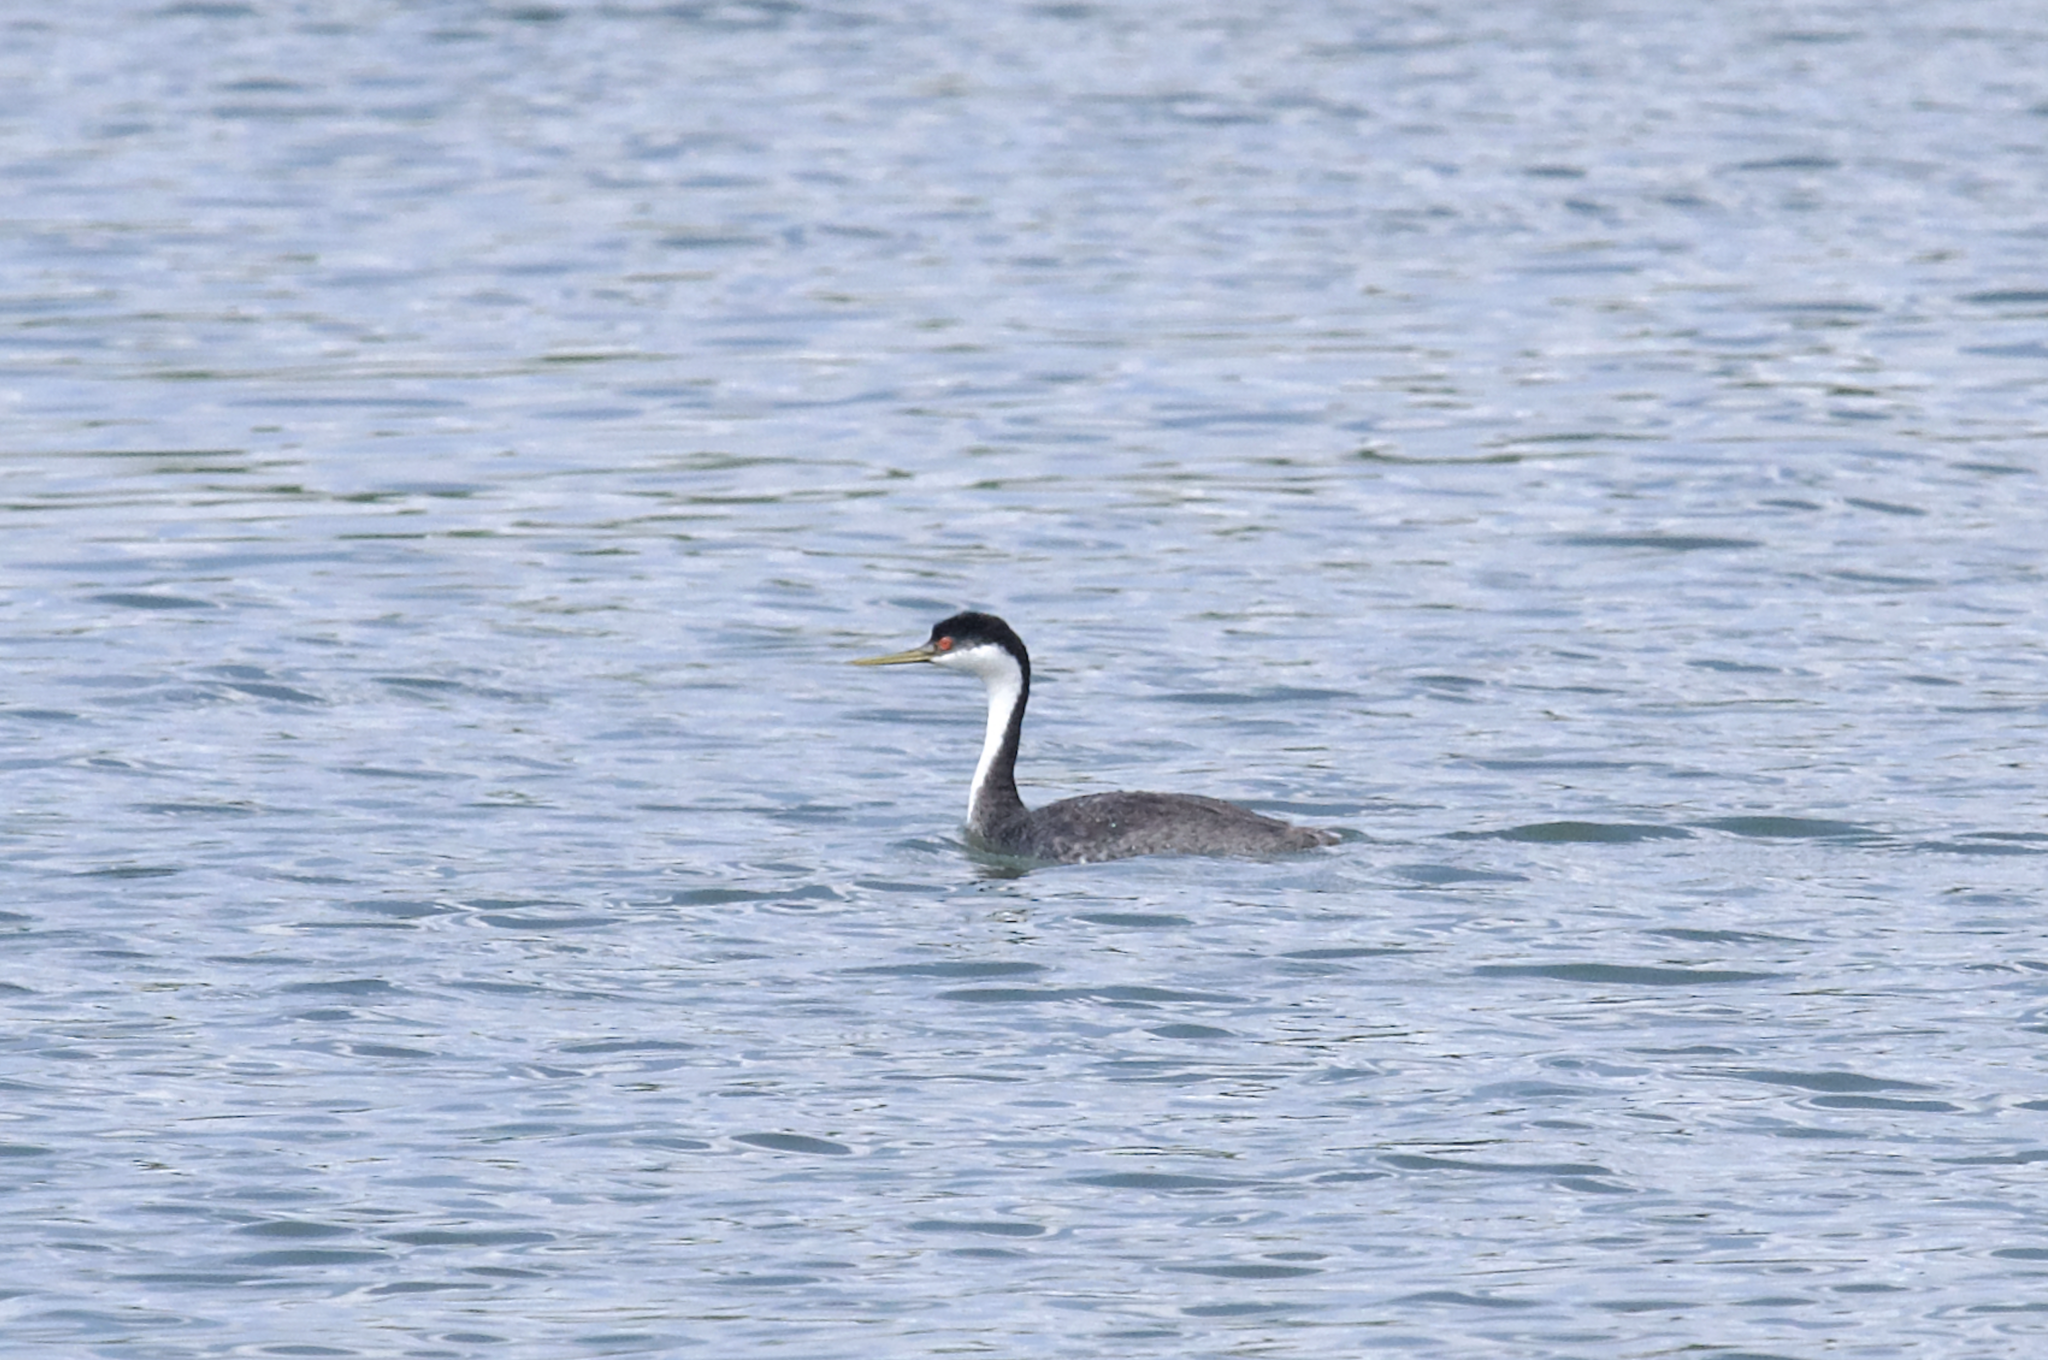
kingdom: Animalia
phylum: Chordata
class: Aves
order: Podicipediformes
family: Podicipedidae
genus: Aechmophorus
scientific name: Aechmophorus occidentalis
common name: Western grebe
